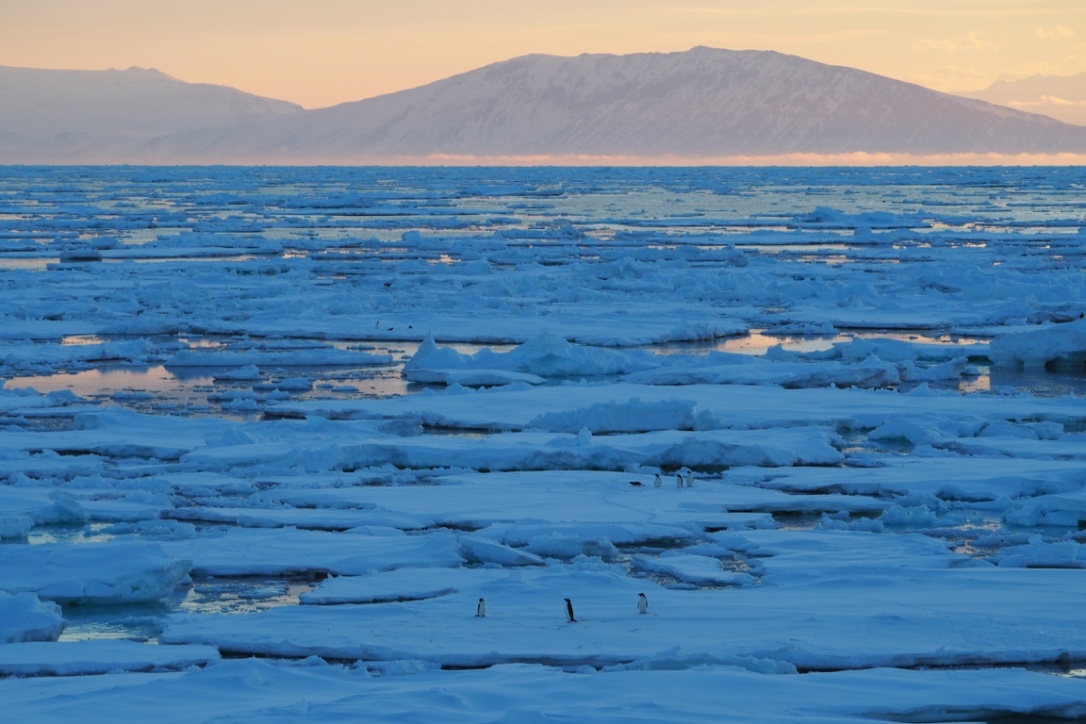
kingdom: Animalia
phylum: Chordata
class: Aves
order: Sphenisciformes
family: Spheniscidae
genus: Pygoscelis
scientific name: Pygoscelis adeliae
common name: Adelie penguin
